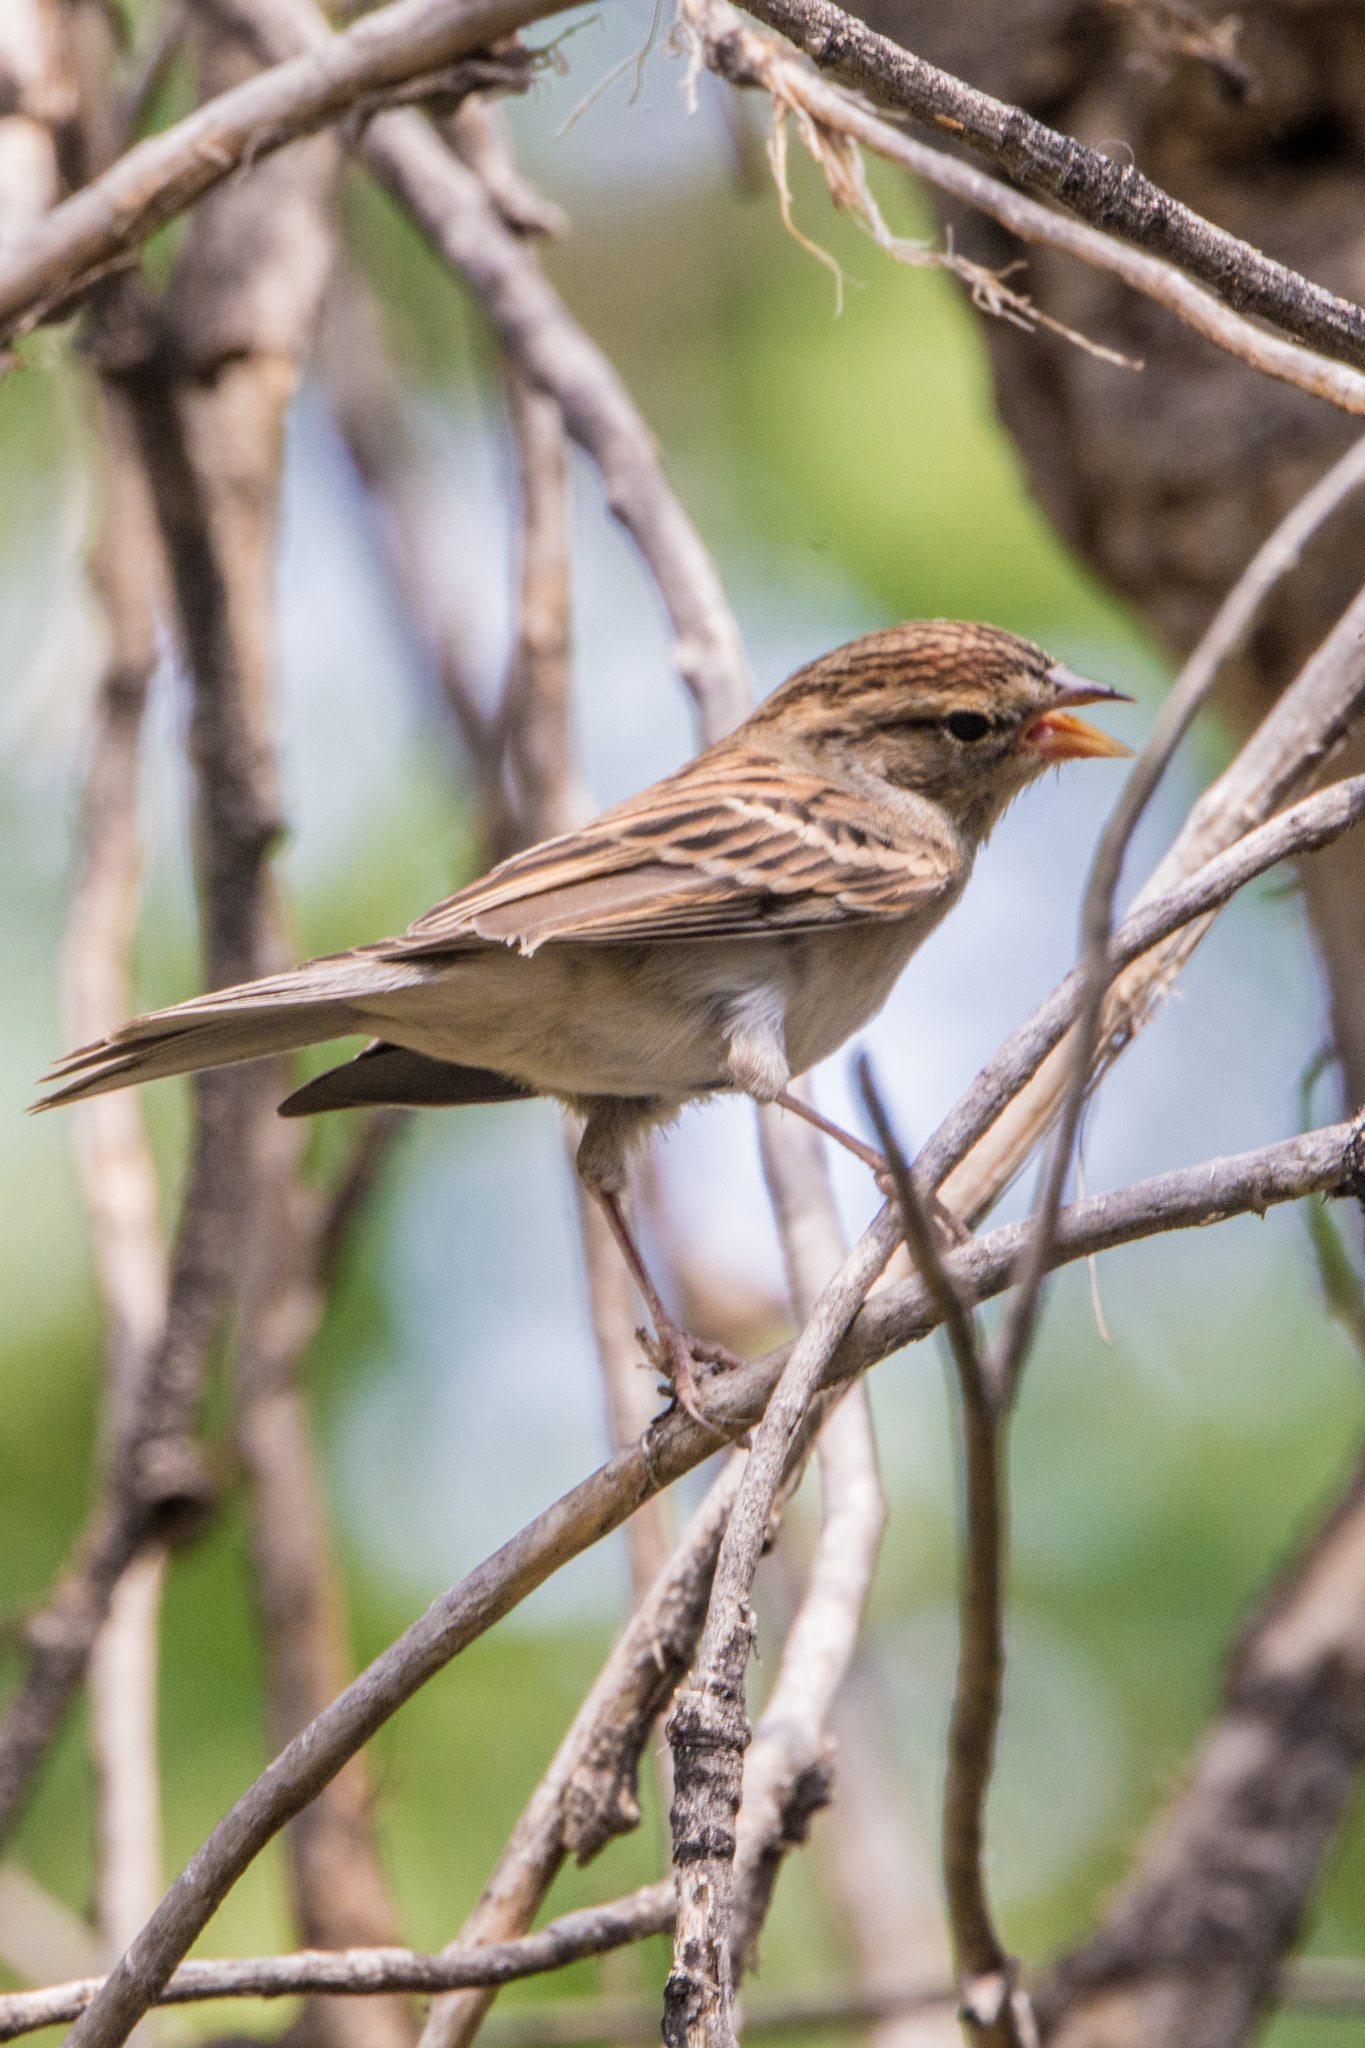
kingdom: Animalia
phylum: Chordata
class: Aves
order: Passeriformes
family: Passerellidae
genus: Spizella
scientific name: Spizella passerina
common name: Chipping sparrow
